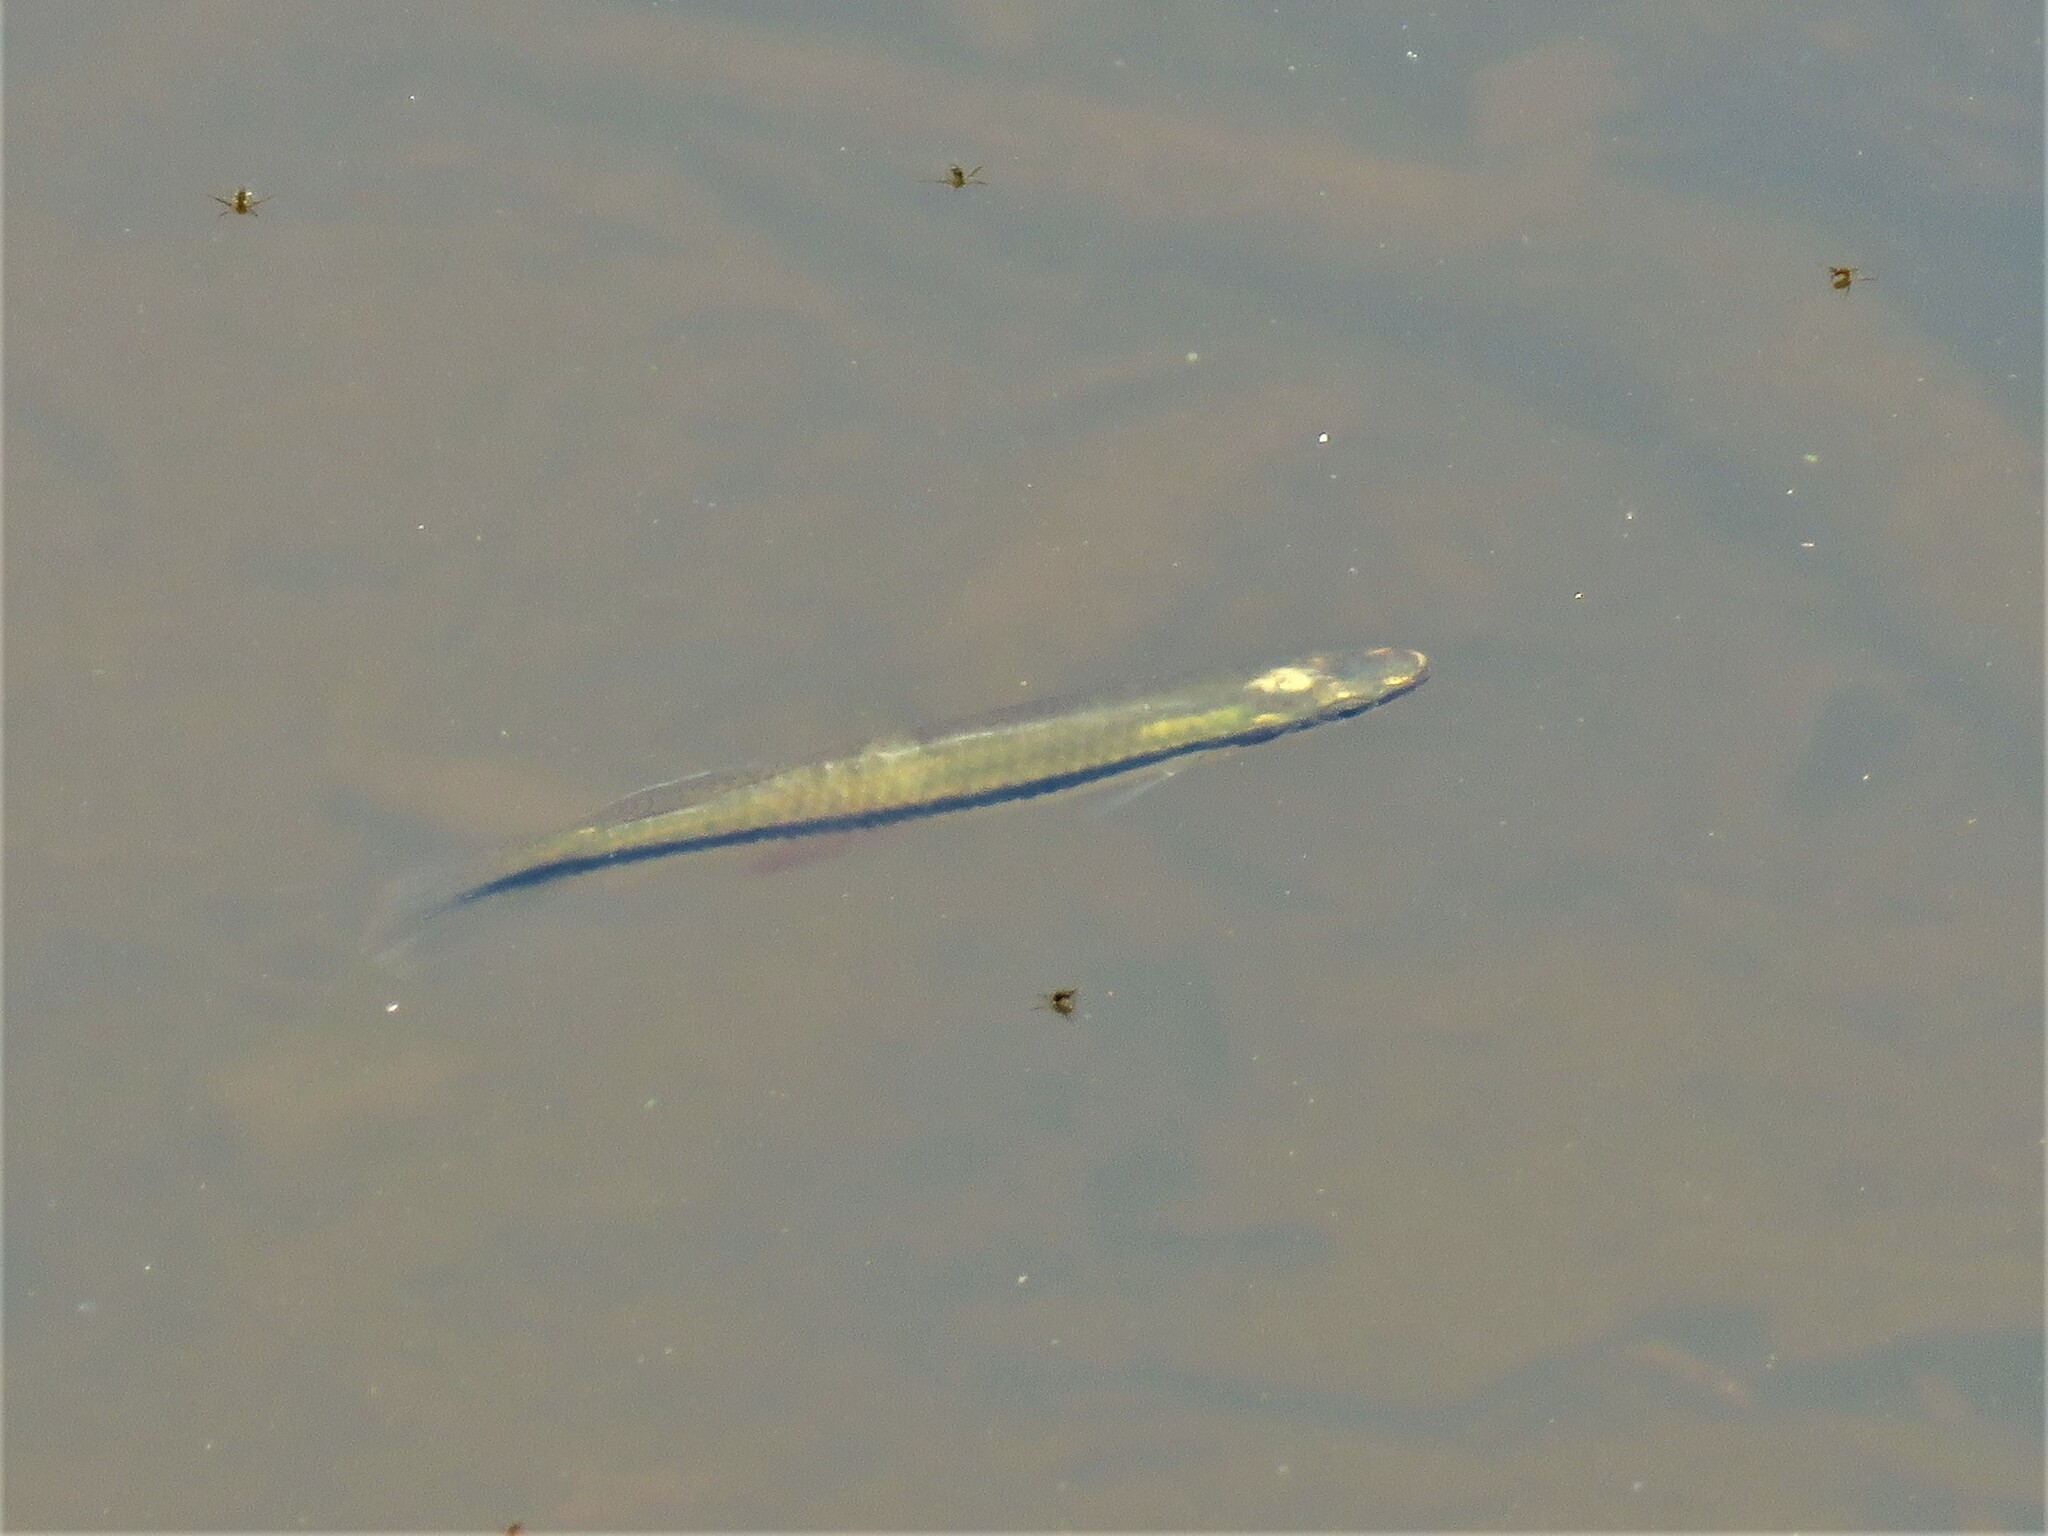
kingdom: Animalia
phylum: Chordata
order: Cyprinodontiformes
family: Fundulidae
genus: Fundulus
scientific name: Fundulus notatus
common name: Blackstripe topminnow
